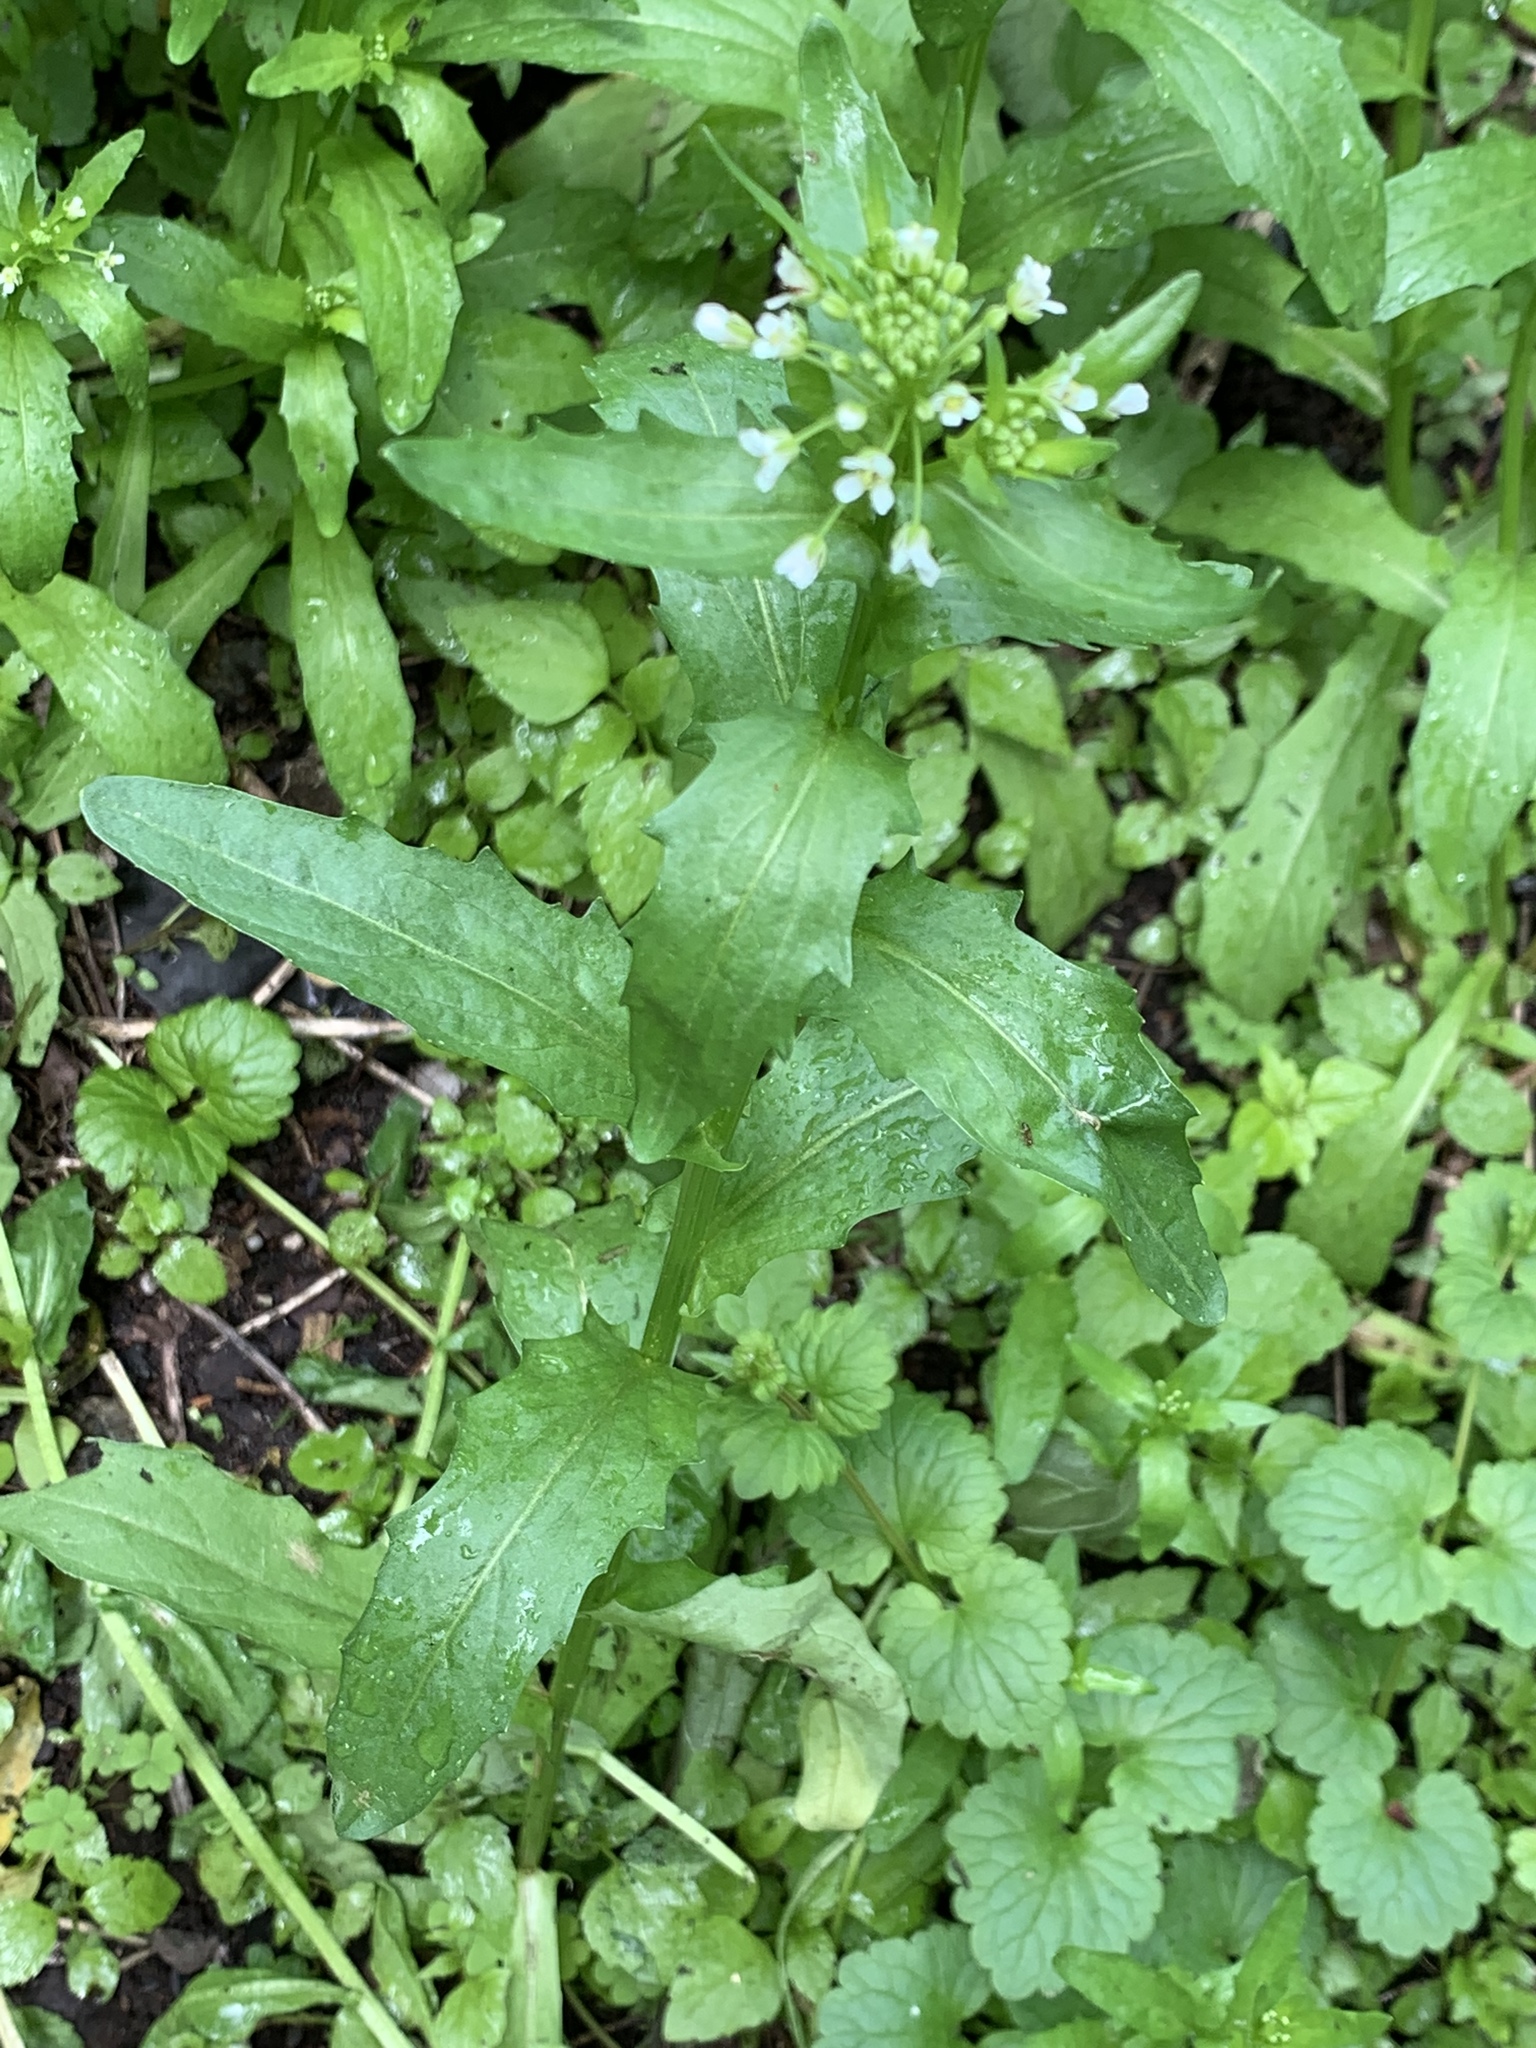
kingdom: Plantae
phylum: Tracheophyta
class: Magnoliopsida
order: Brassicales
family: Brassicaceae
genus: Thlaspi
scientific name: Thlaspi arvense
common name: Field pennycress
